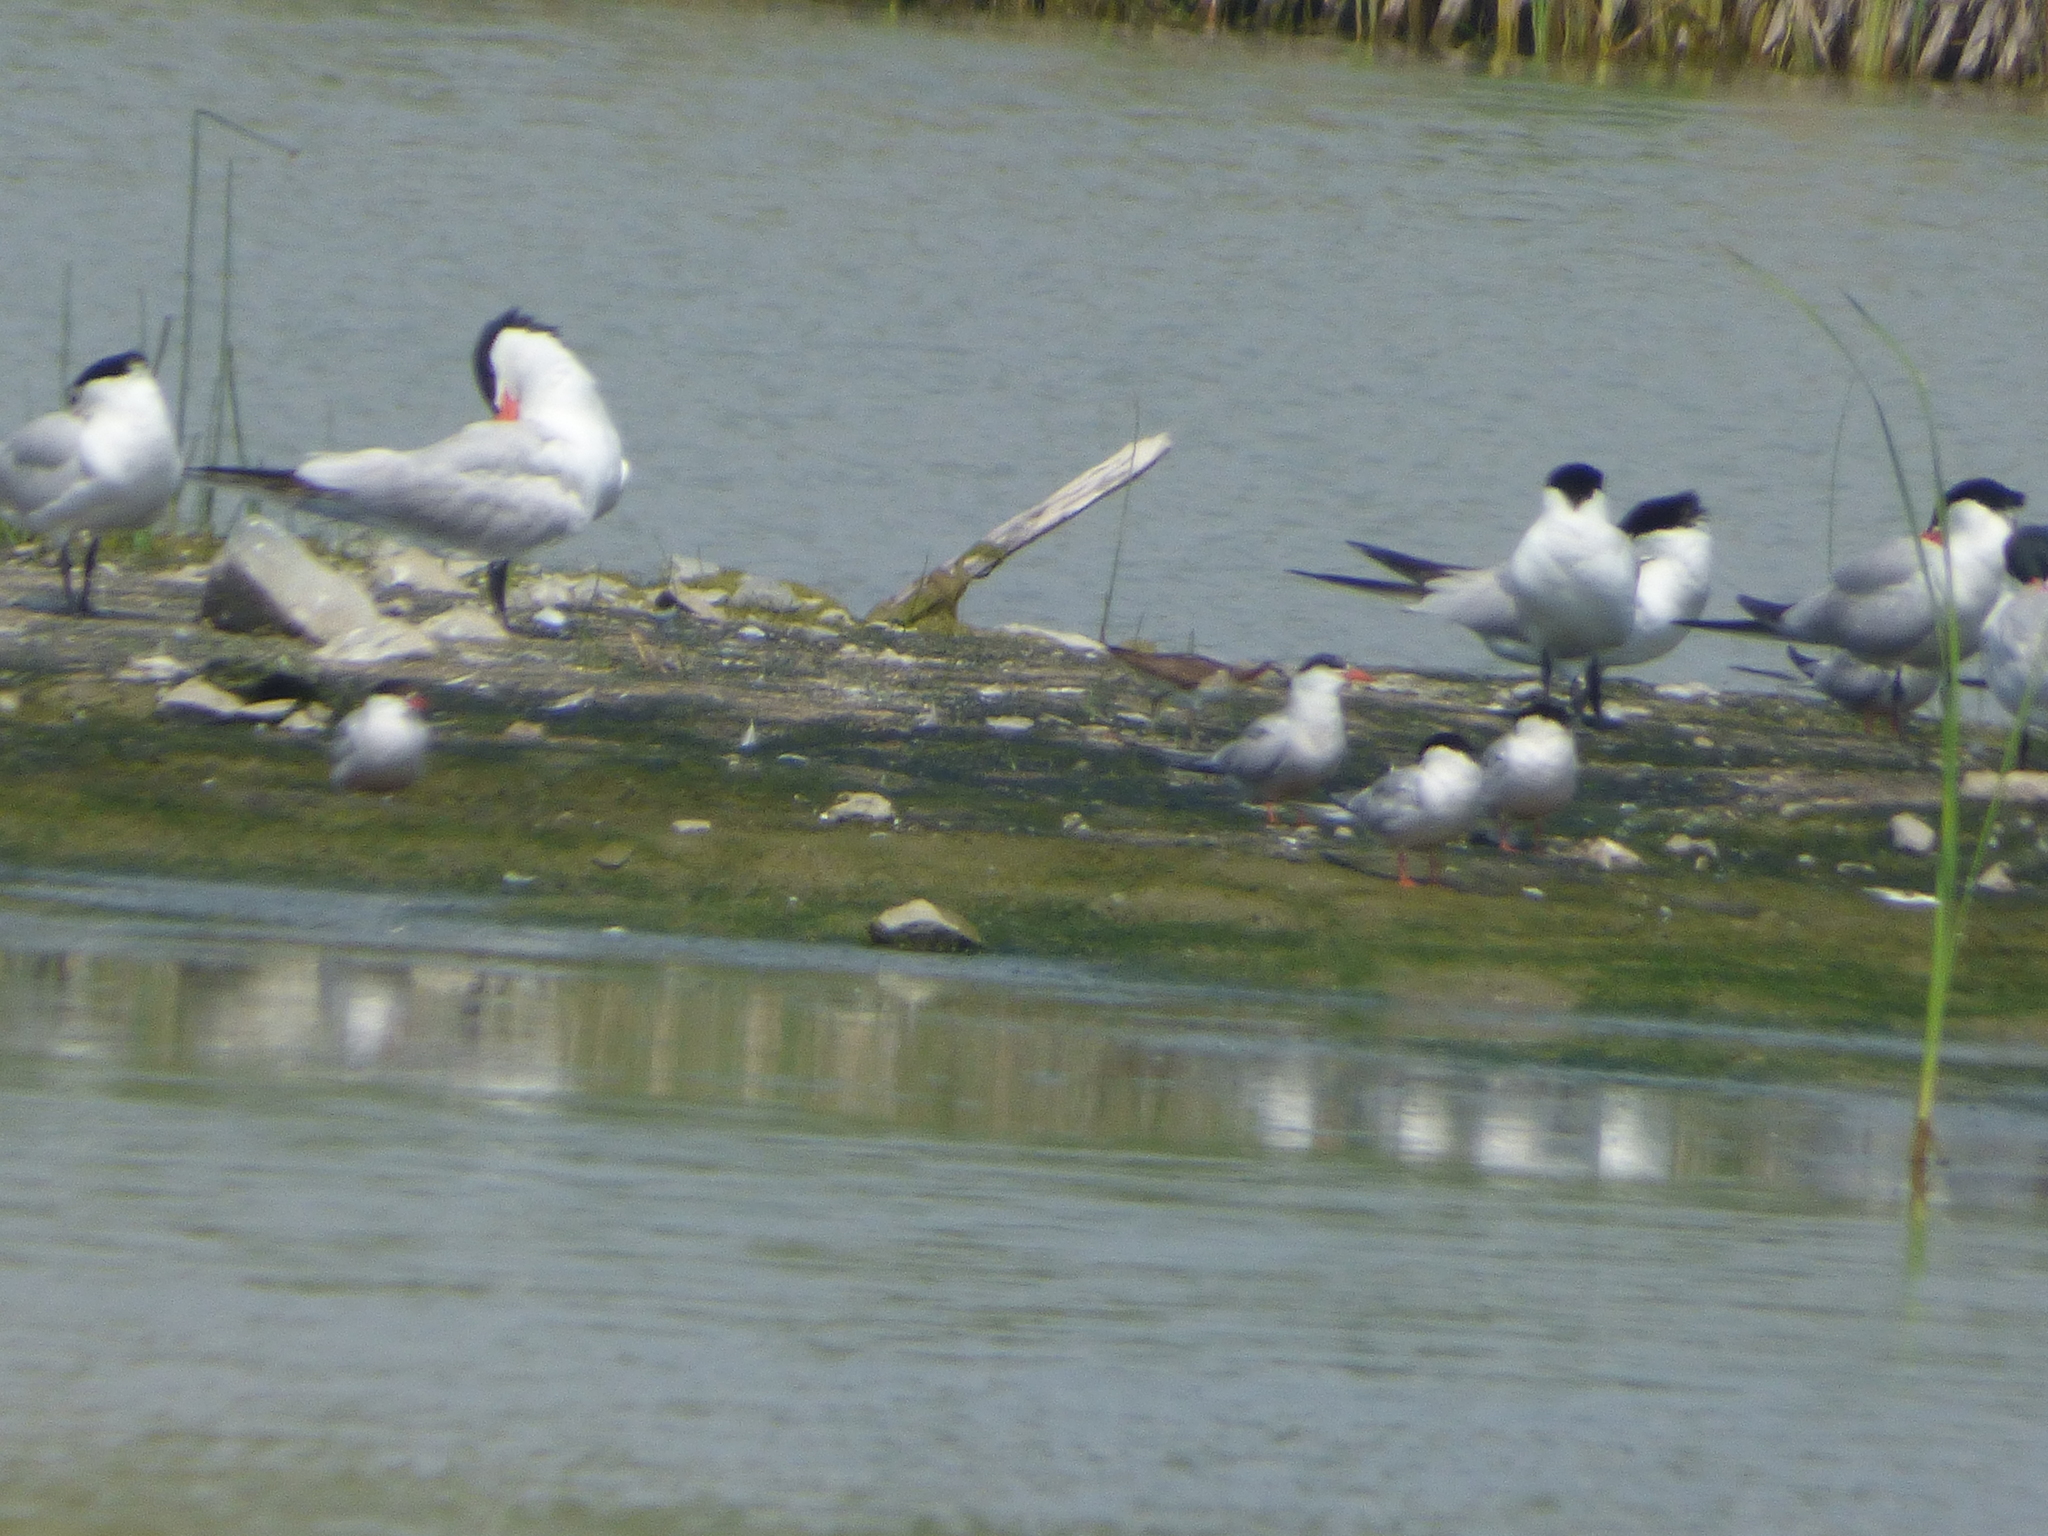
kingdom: Animalia
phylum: Chordata
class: Aves
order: Charadriiformes
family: Scolopacidae
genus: Phalaropus
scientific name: Phalaropus tricolor
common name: Wilson's phalarope
